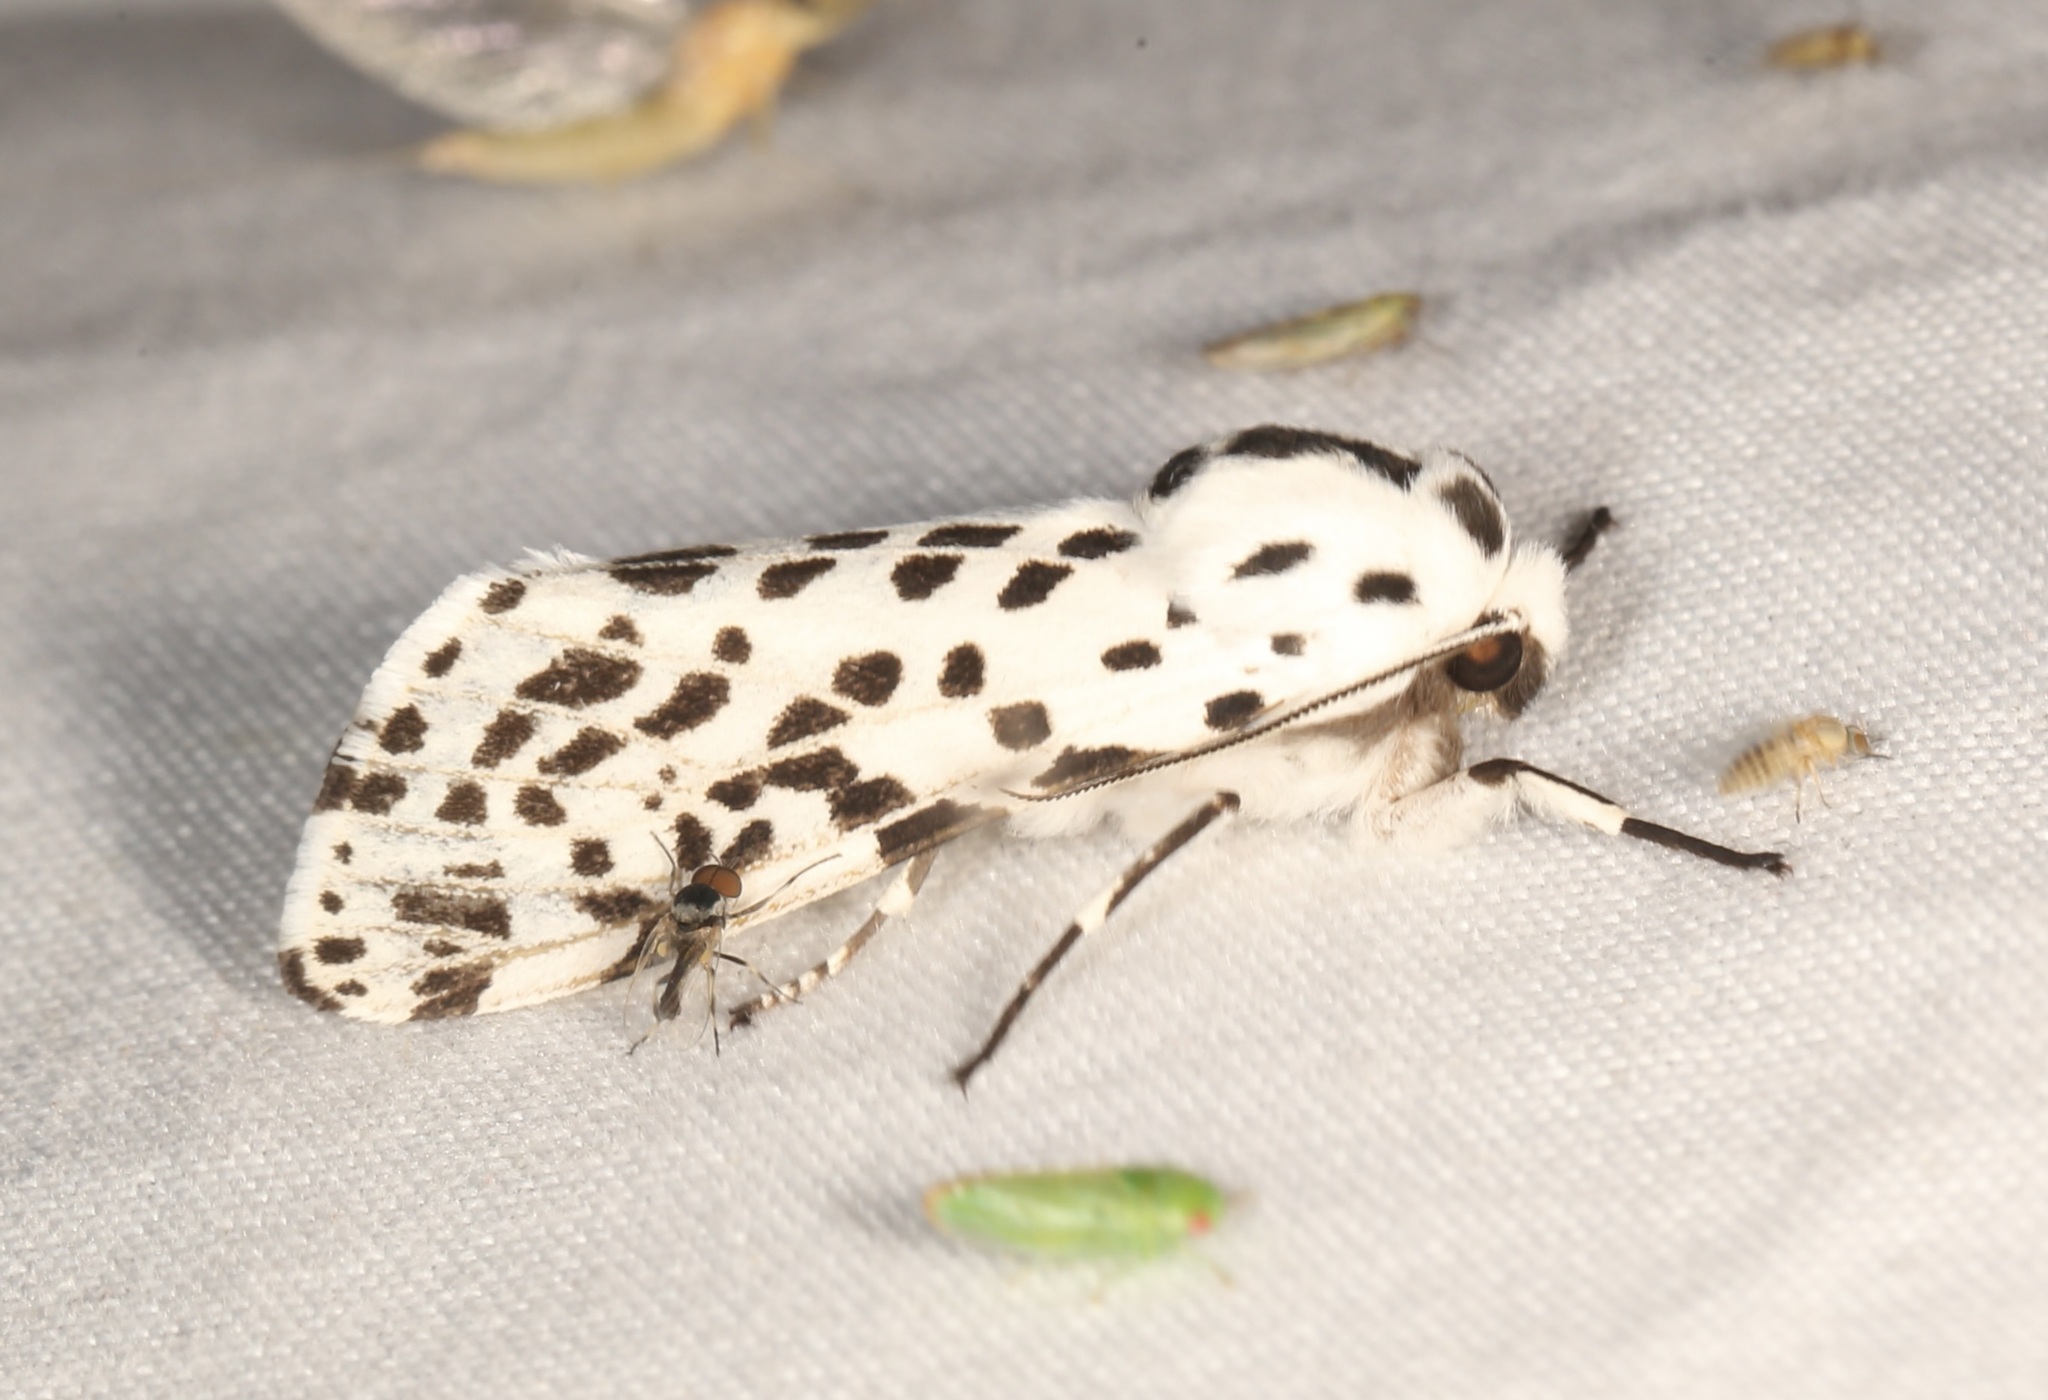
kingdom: Animalia
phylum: Arthropoda
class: Insecta
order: Lepidoptera
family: Erebidae
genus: Hypercompe
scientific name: Hypercompe permaculata
